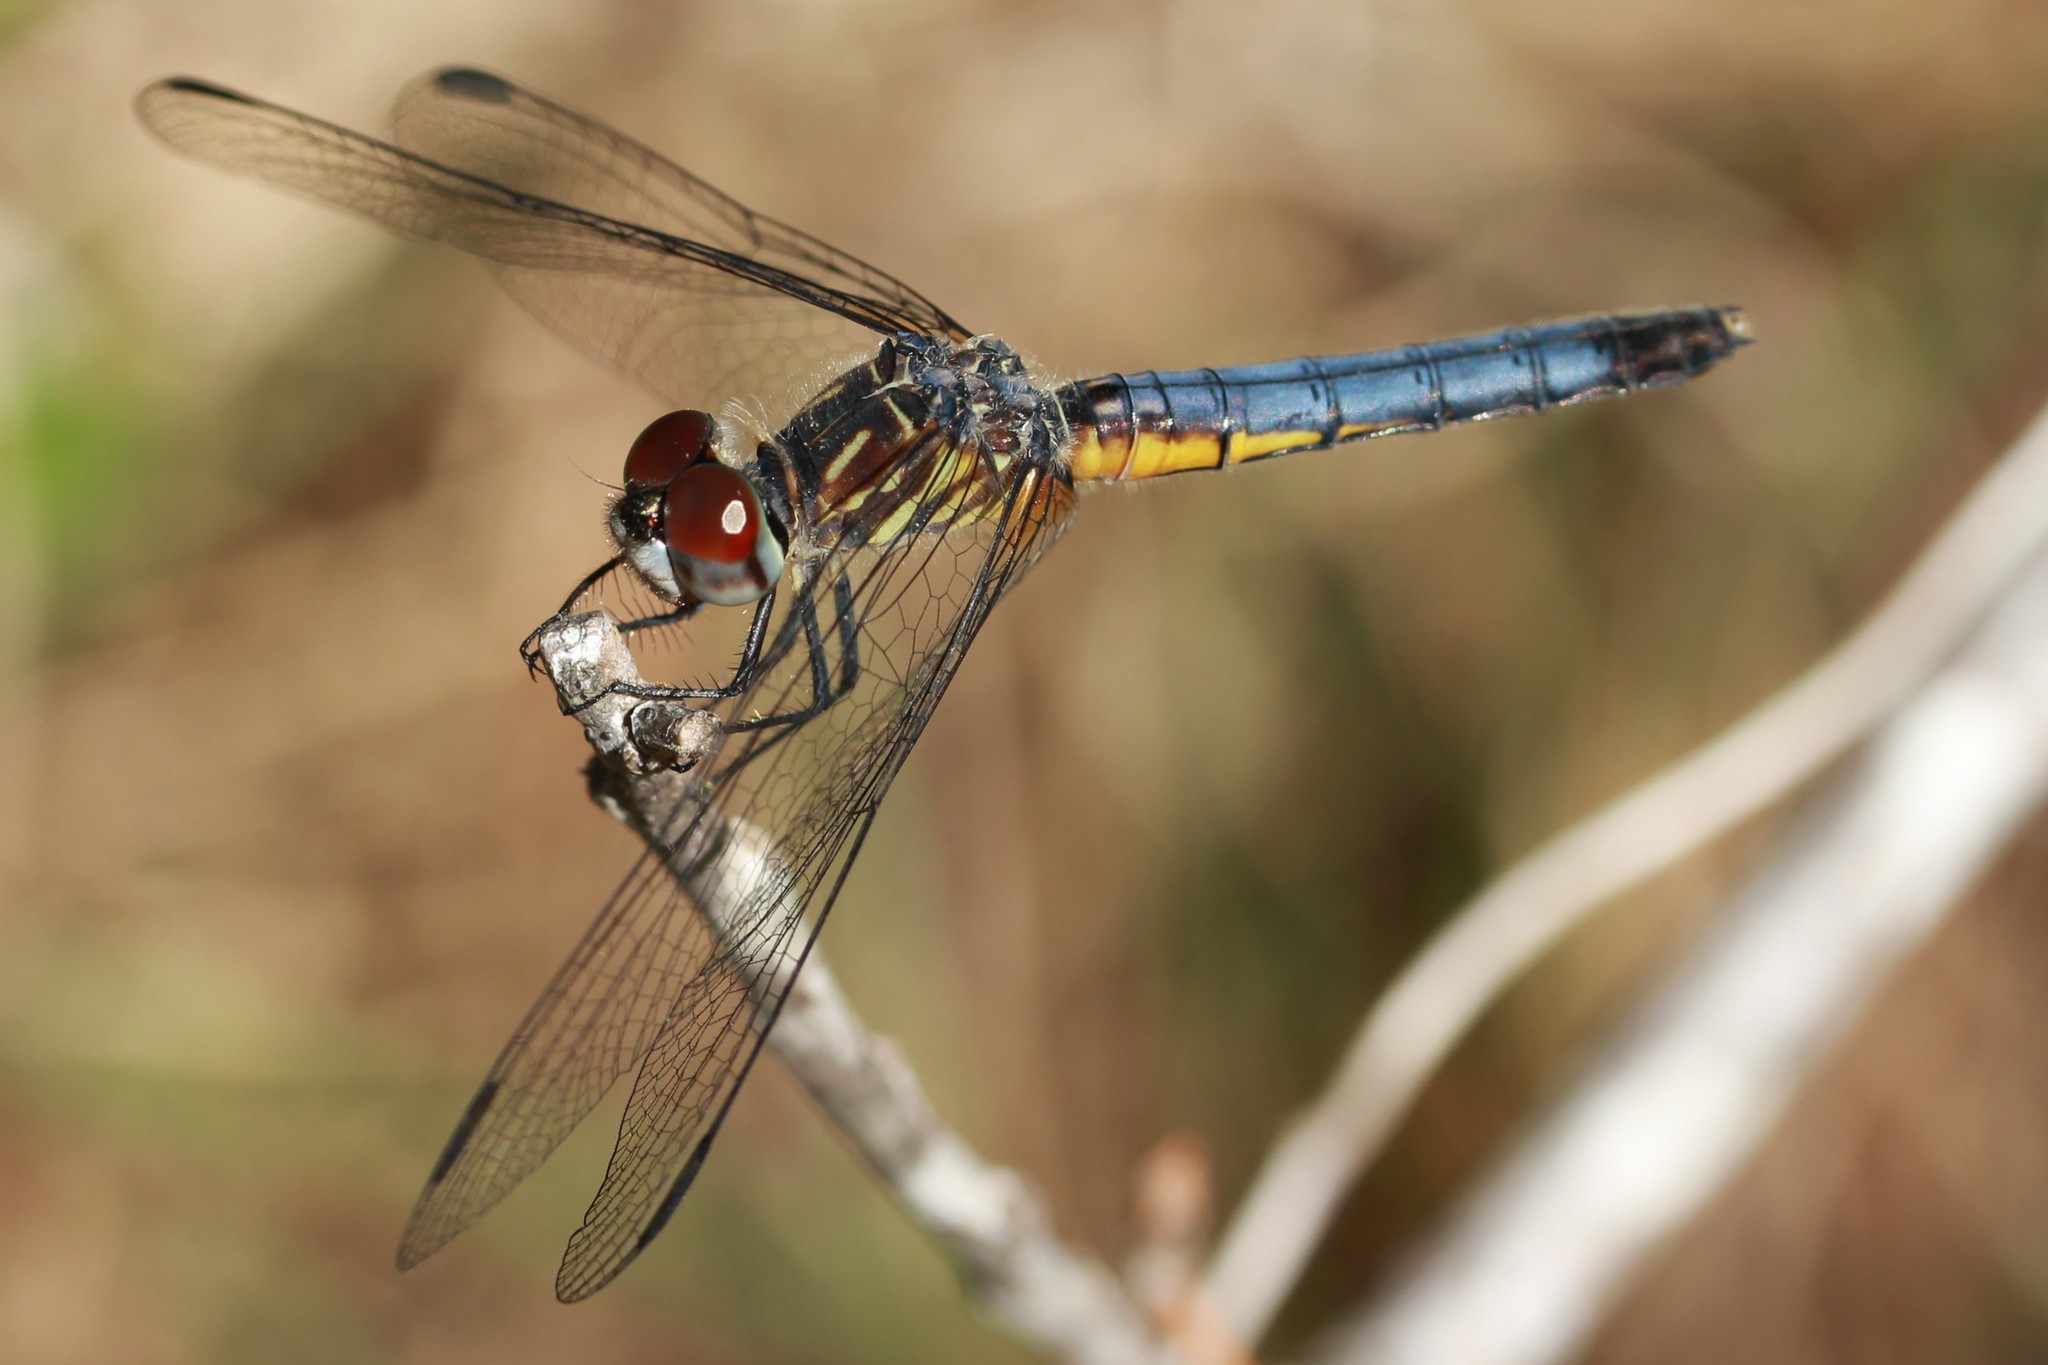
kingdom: Animalia
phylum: Arthropoda
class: Insecta
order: Odonata
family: Libellulidae
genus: Pachydiplax
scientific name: Pachydiplax longipennis
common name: Blue dasher
